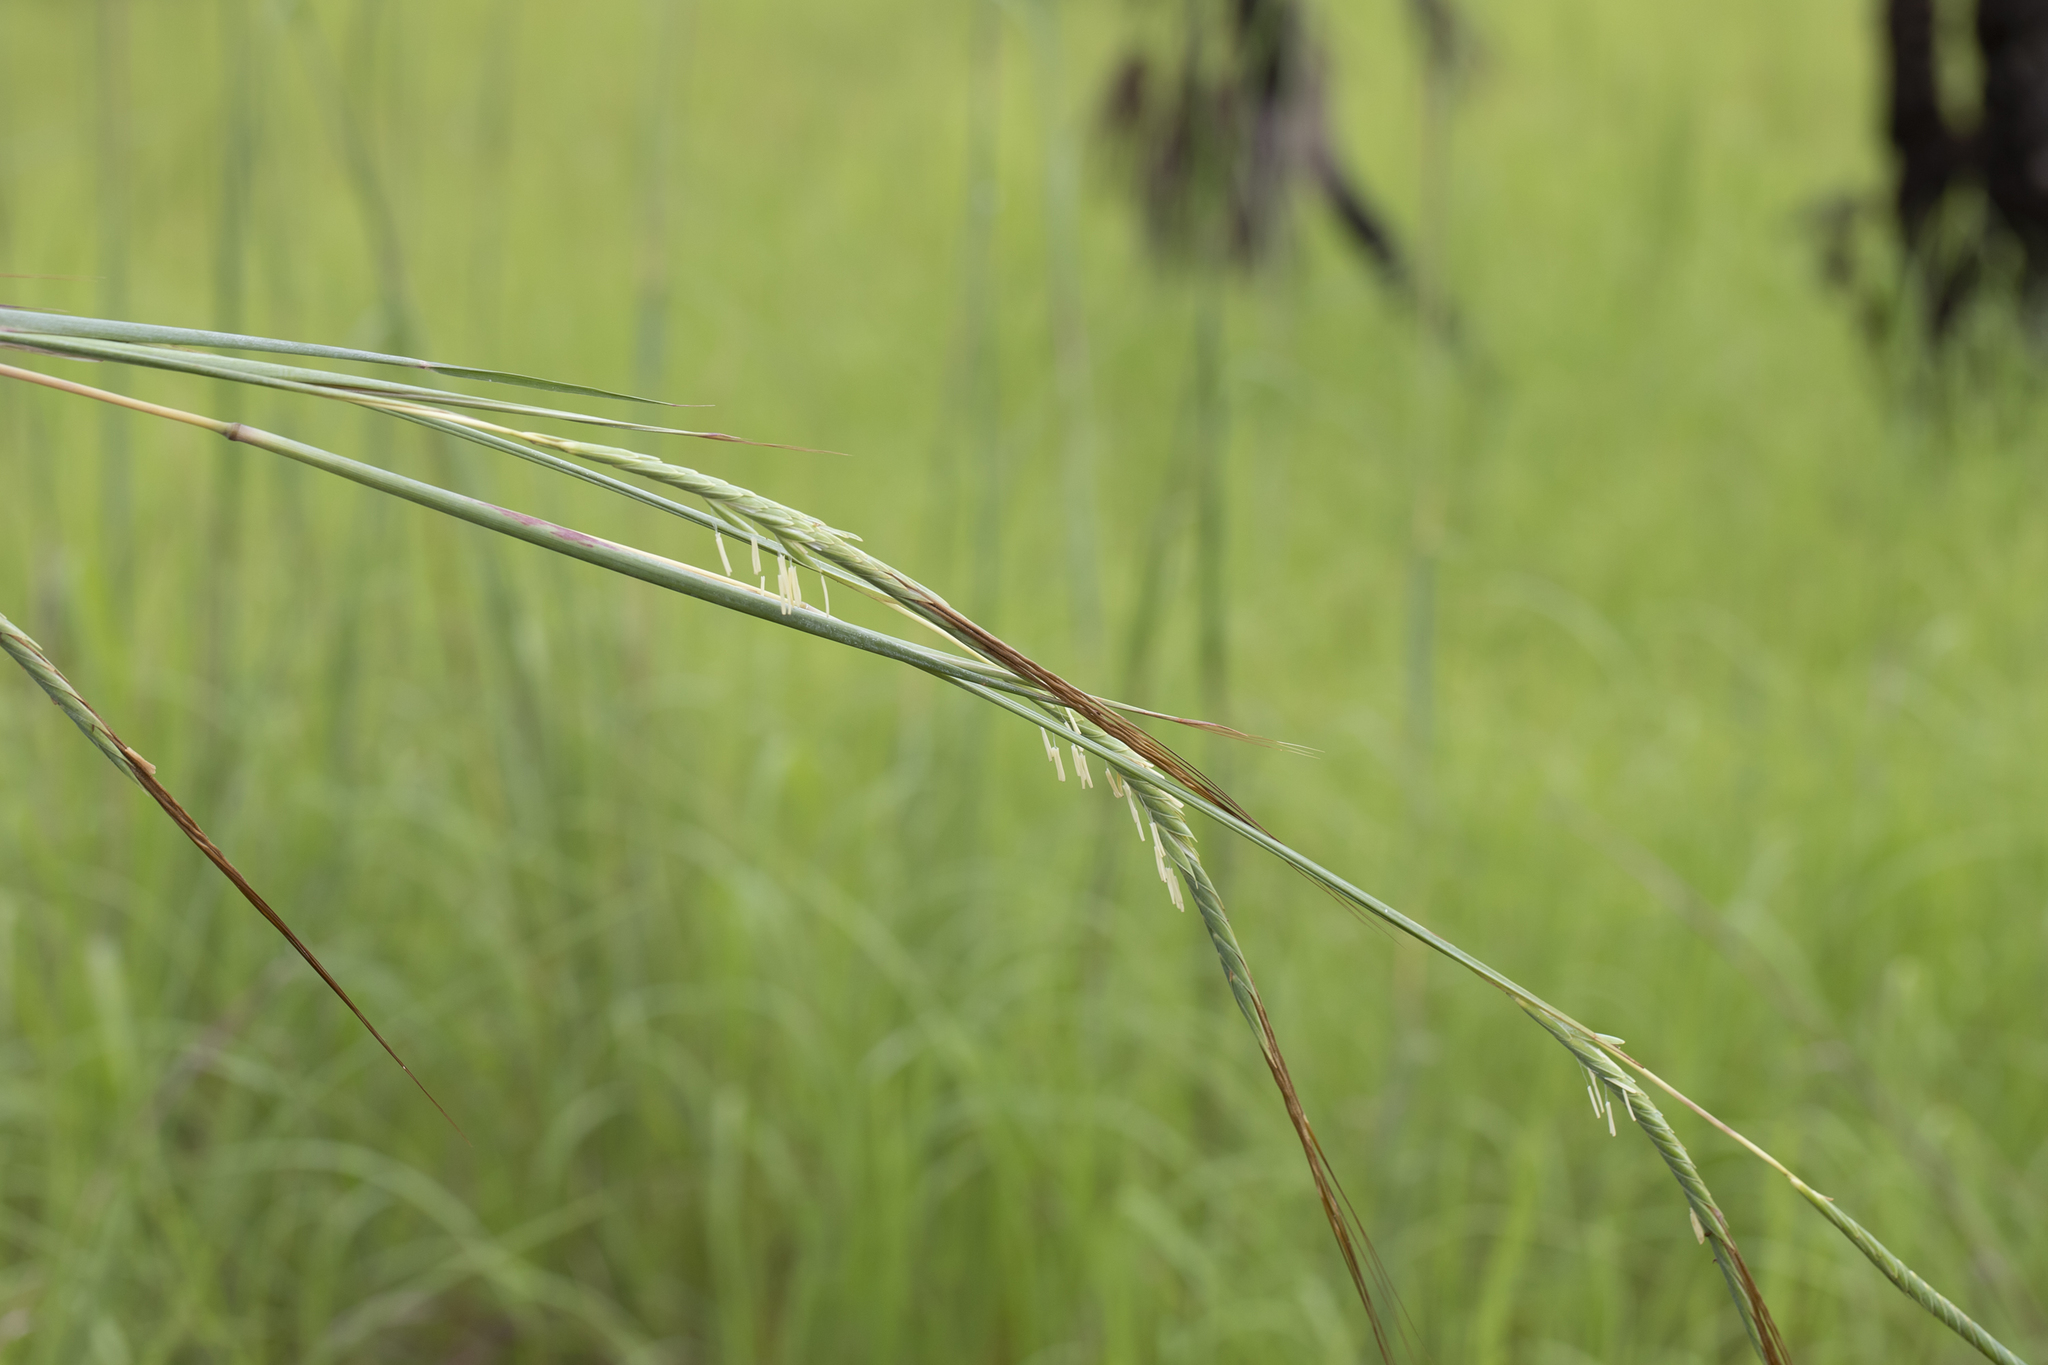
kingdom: Plantae
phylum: Tracheophyta
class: Liliopsida
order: Poales
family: Poaceae
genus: Heteropogon
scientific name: Heteropogon triticeus
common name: Sugar grass
